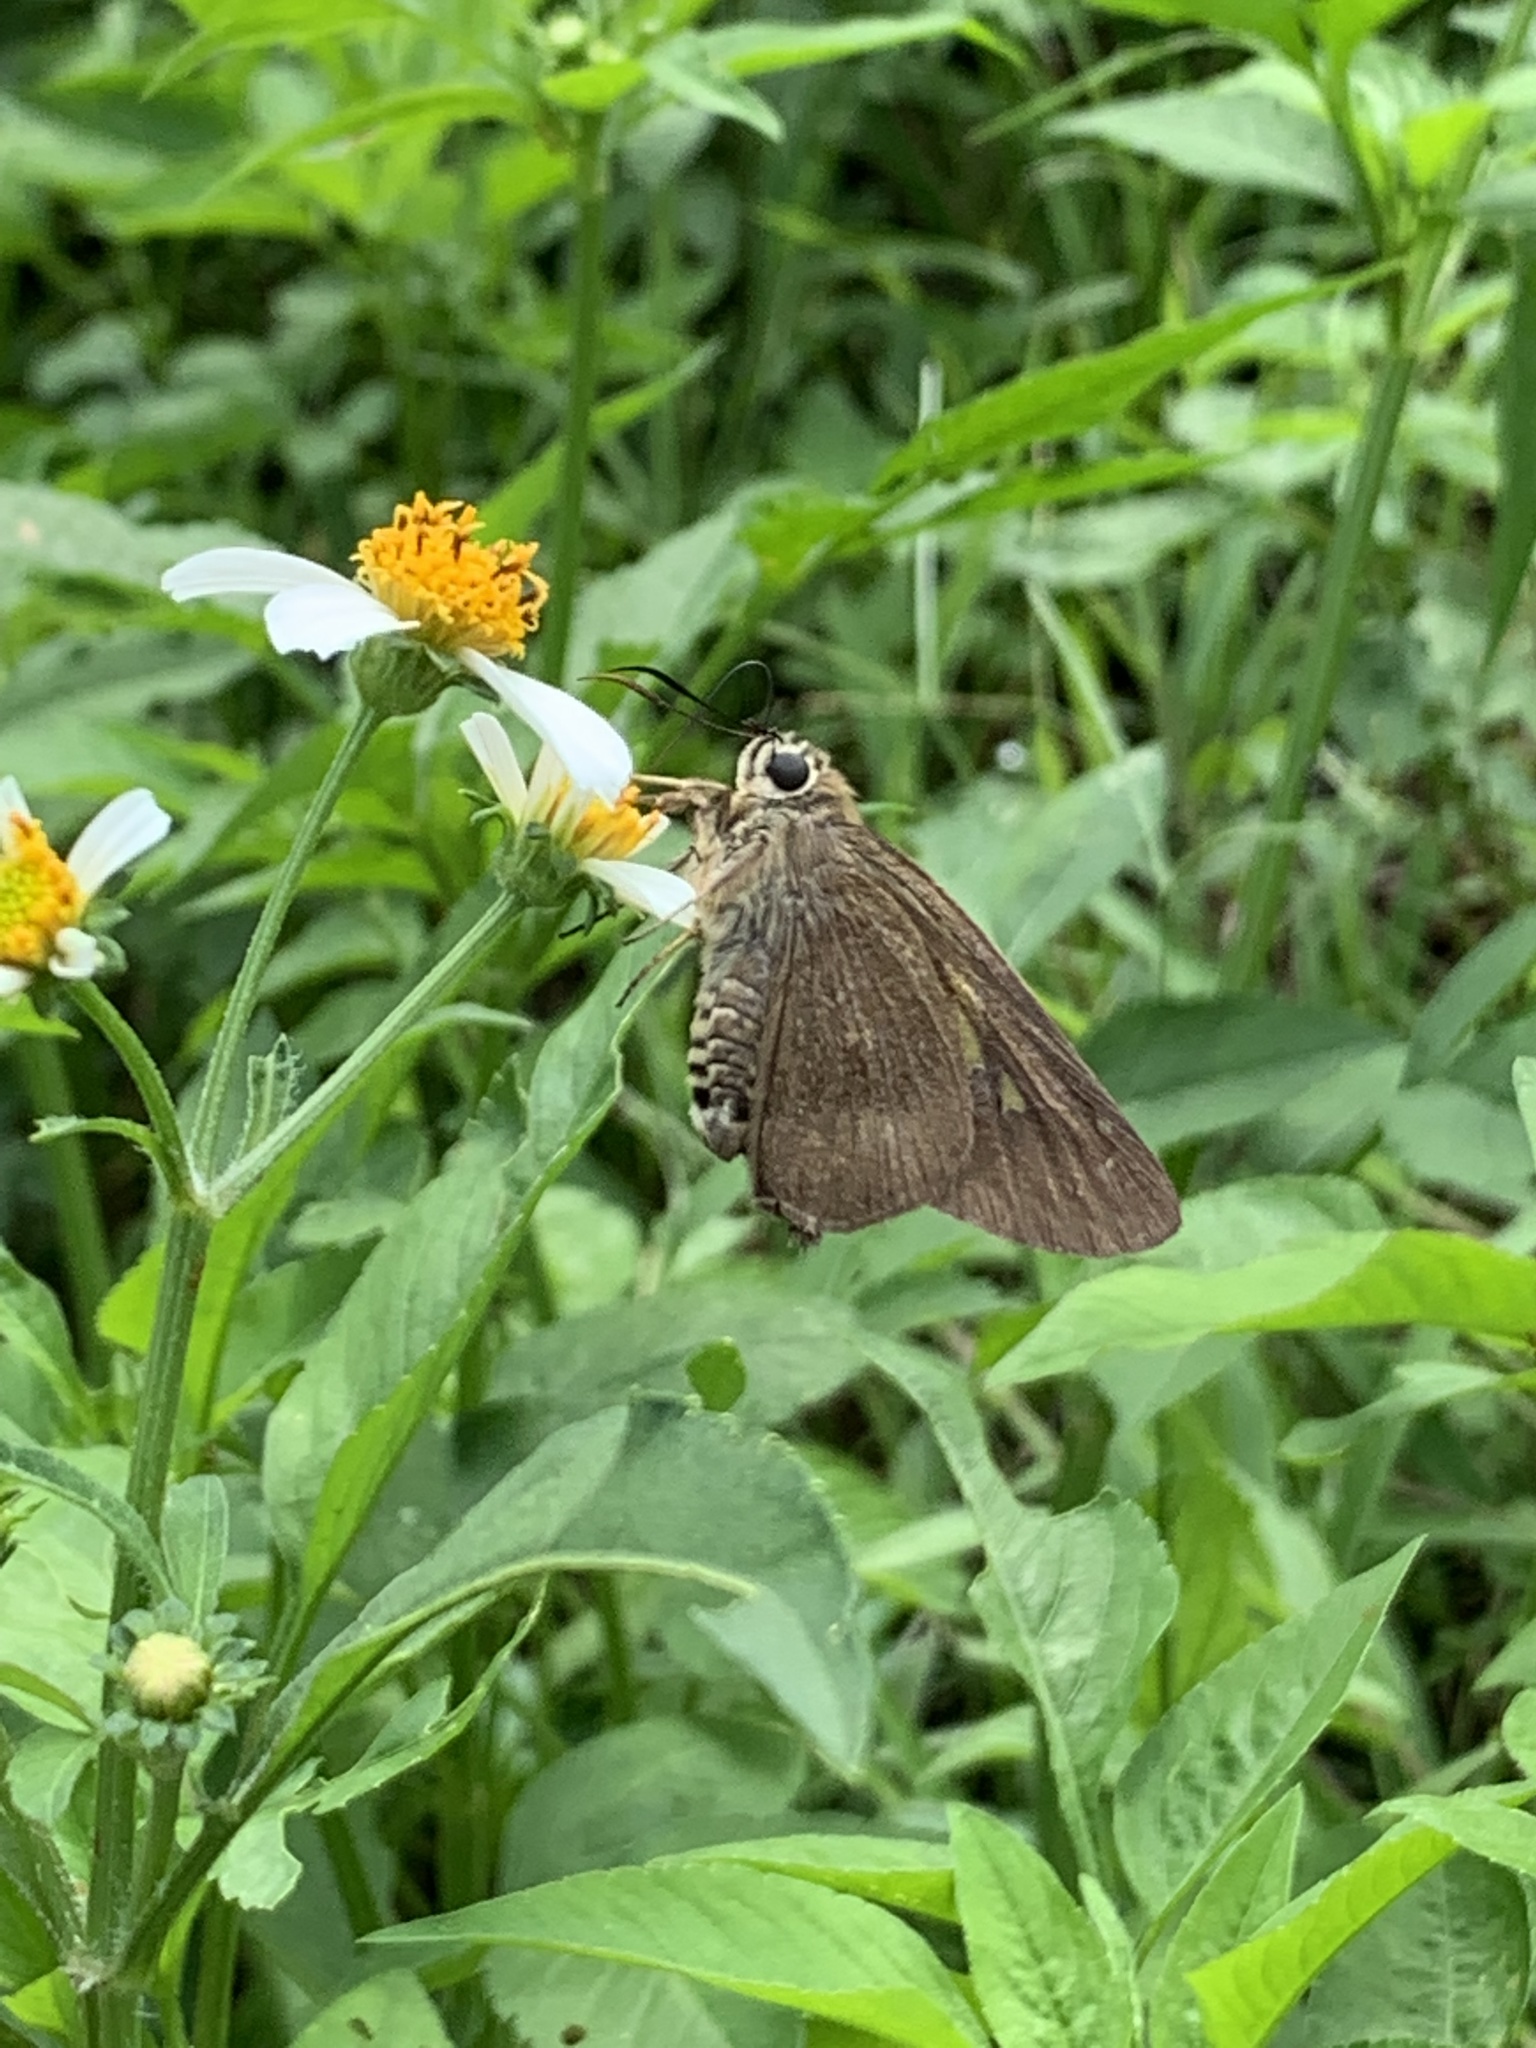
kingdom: Animalia
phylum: Arthropoda
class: Insecta
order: Lepidoptera
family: Hesperiidae
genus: Badamia
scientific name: Badamia exclamationis
